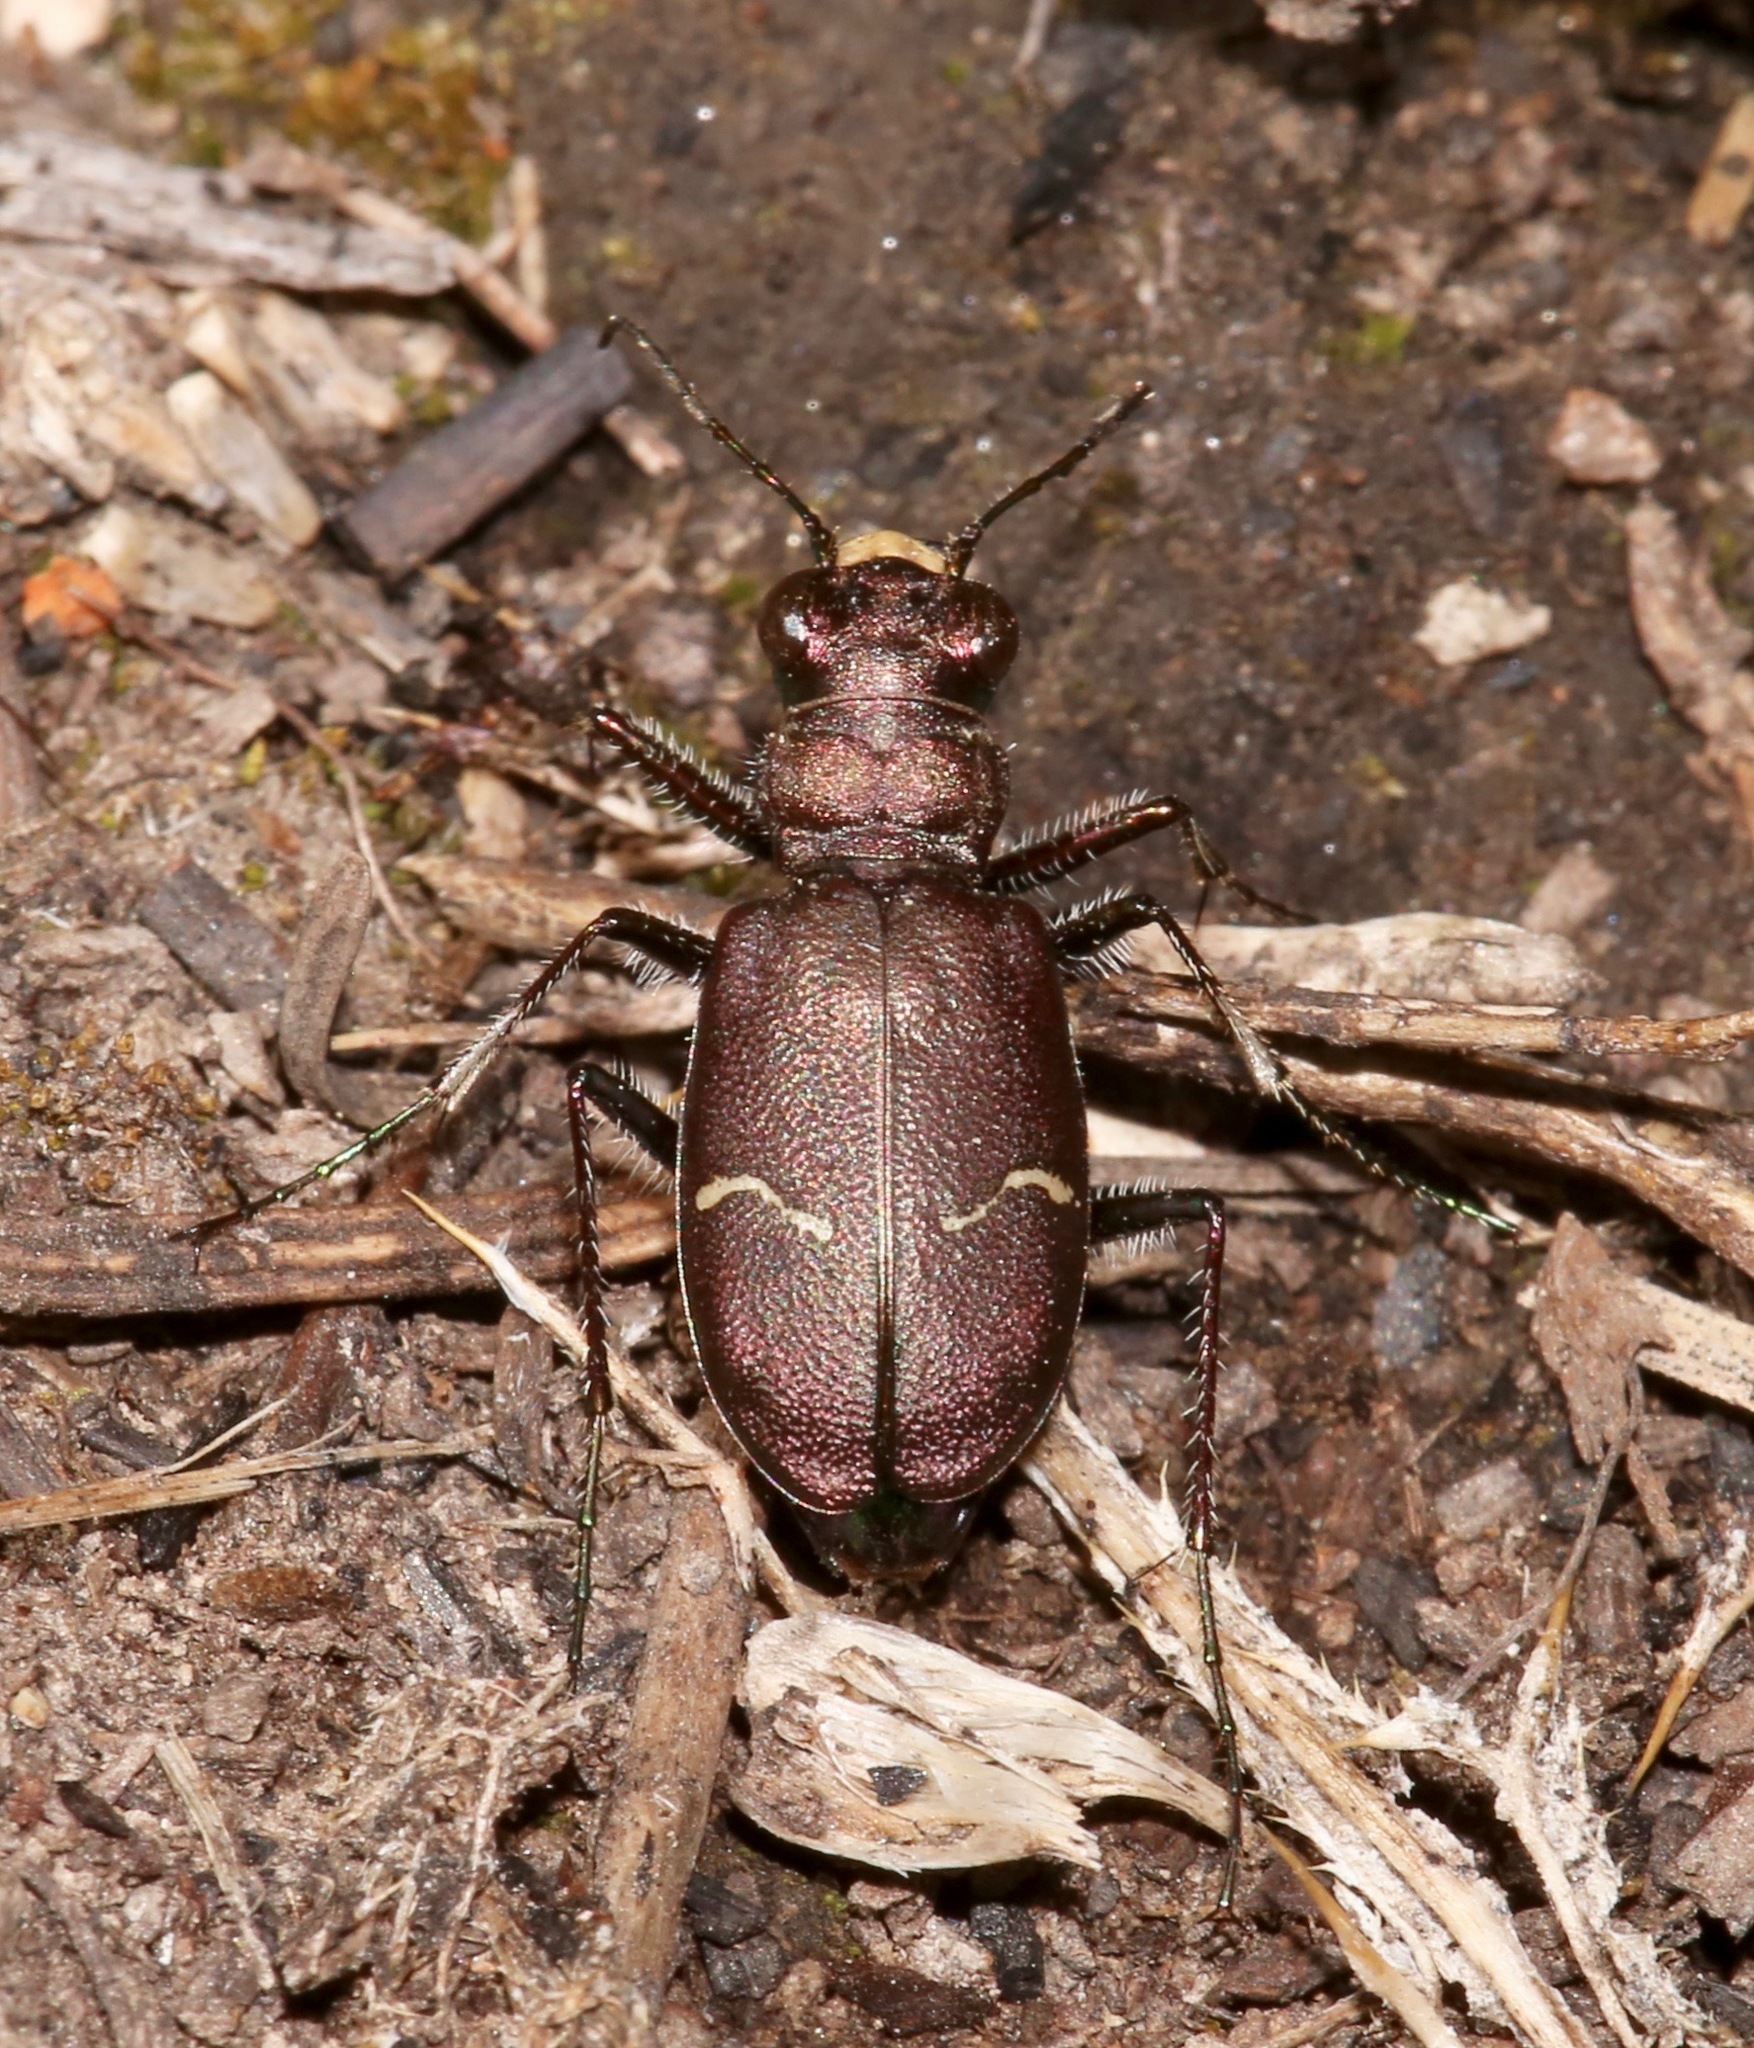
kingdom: Animalia
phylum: Arthropoda
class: Insecta
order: Coleoptera
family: Carabidae
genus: Cicindela
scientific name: Cicindela longilabris
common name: Boreal long-lipped tiger beetle
